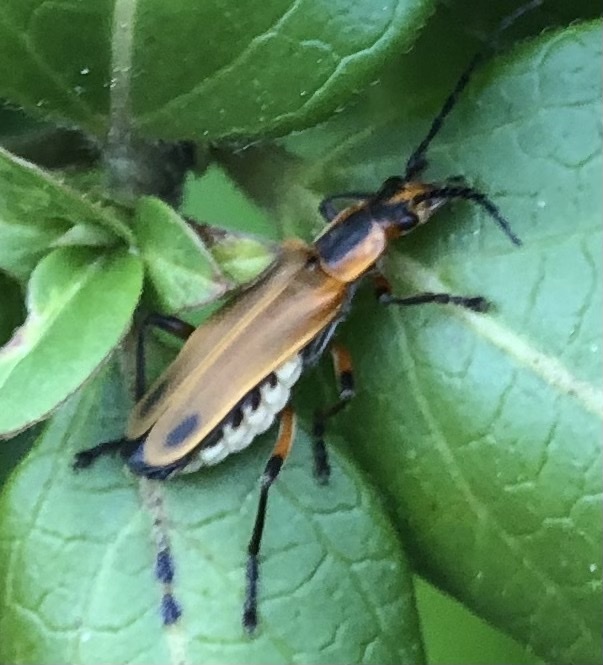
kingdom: Animalia
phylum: Arthropoda
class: Insecta
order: Coleoptera
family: Cantharidae
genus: Chauliognathus
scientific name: Chauliognathus marginatus
